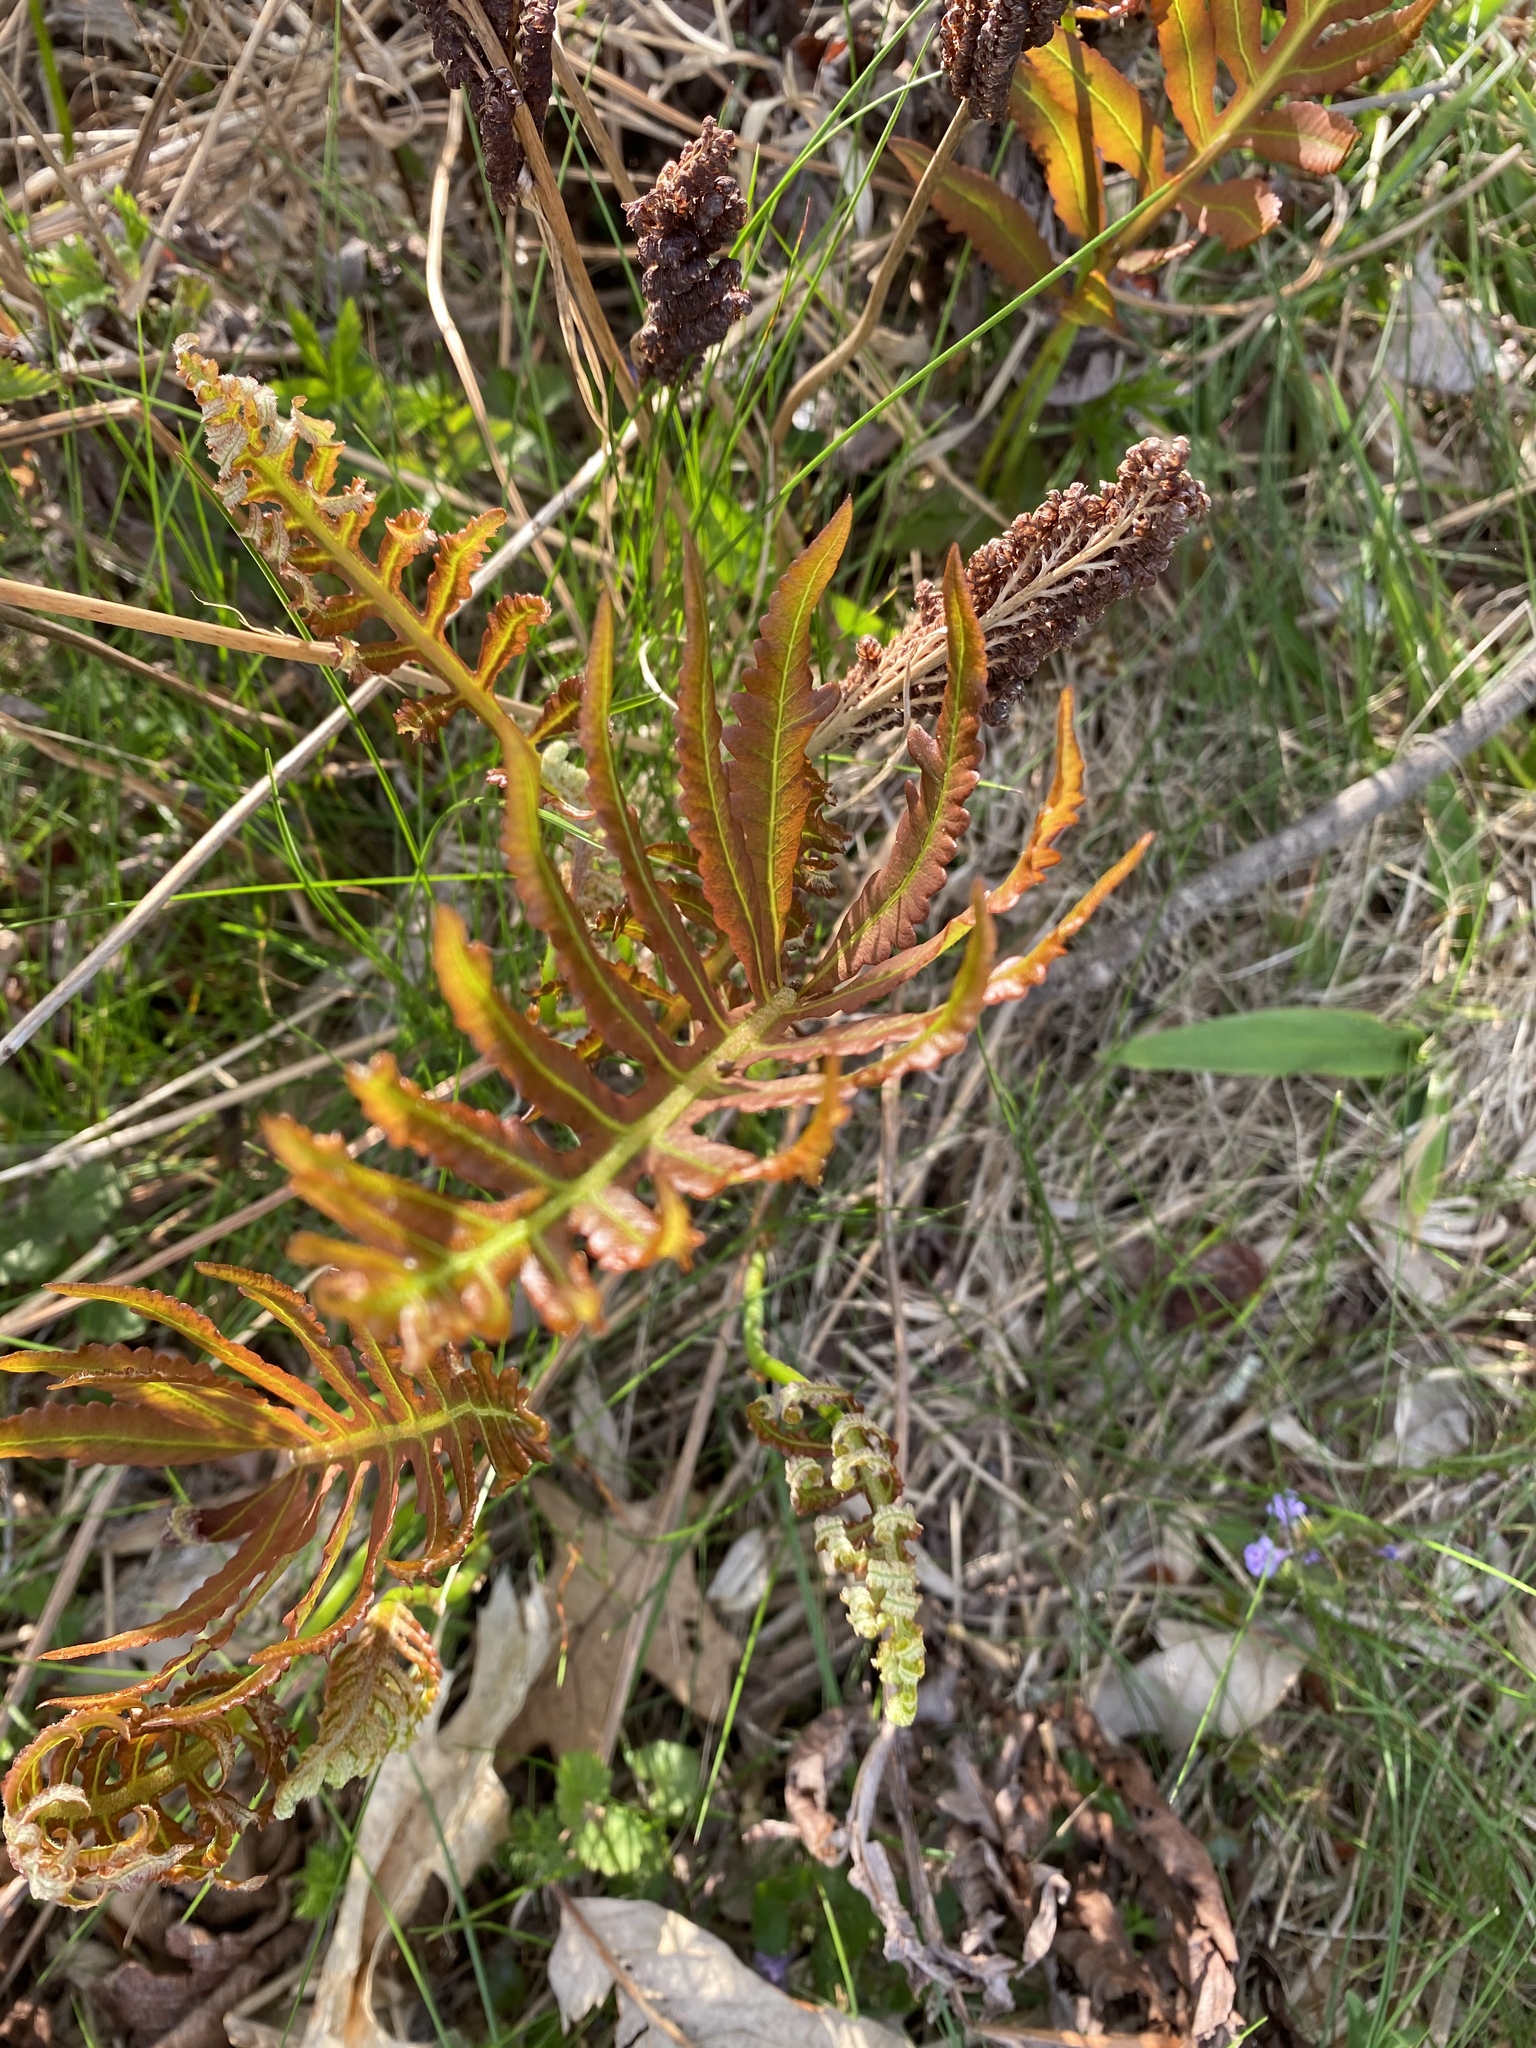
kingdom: Plantae
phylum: Tracheophyta
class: Polypodiopsida
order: Polypodiales
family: Onocleaceae
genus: Onoclea
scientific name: Onoclea sensibilis
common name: Sensitive fern
